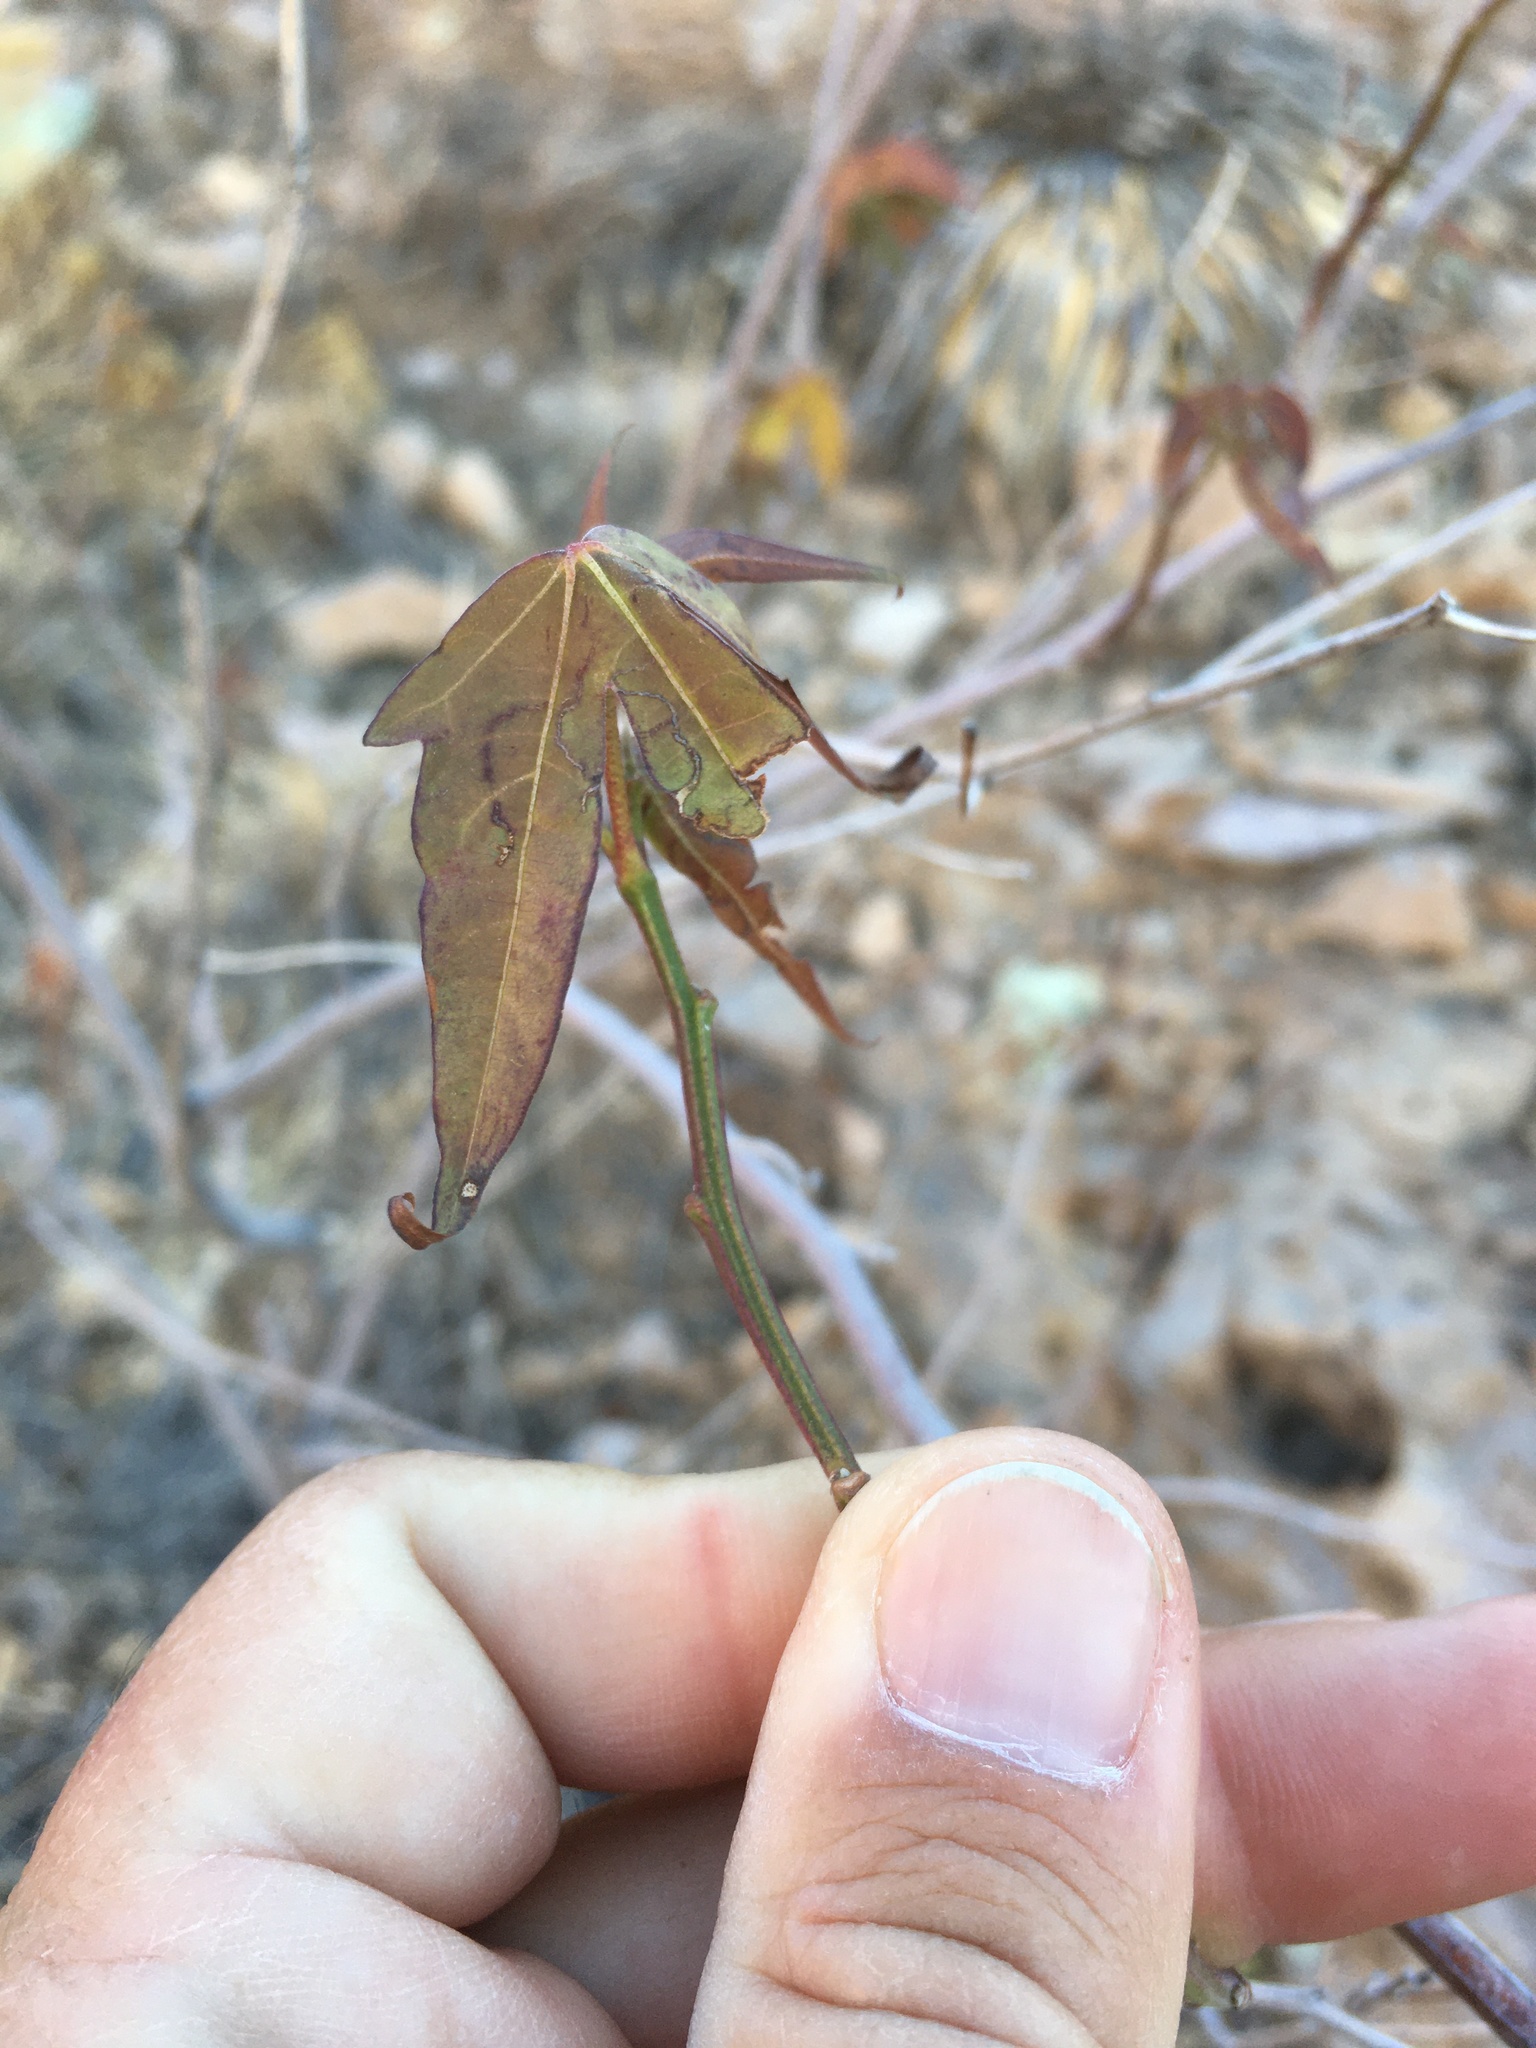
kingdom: Plantae
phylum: Tracheophyta
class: Magnoliopsida
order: Malvales
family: Malvaceae
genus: Gossypium
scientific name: Gossypium thurberi
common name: Desert cotton
